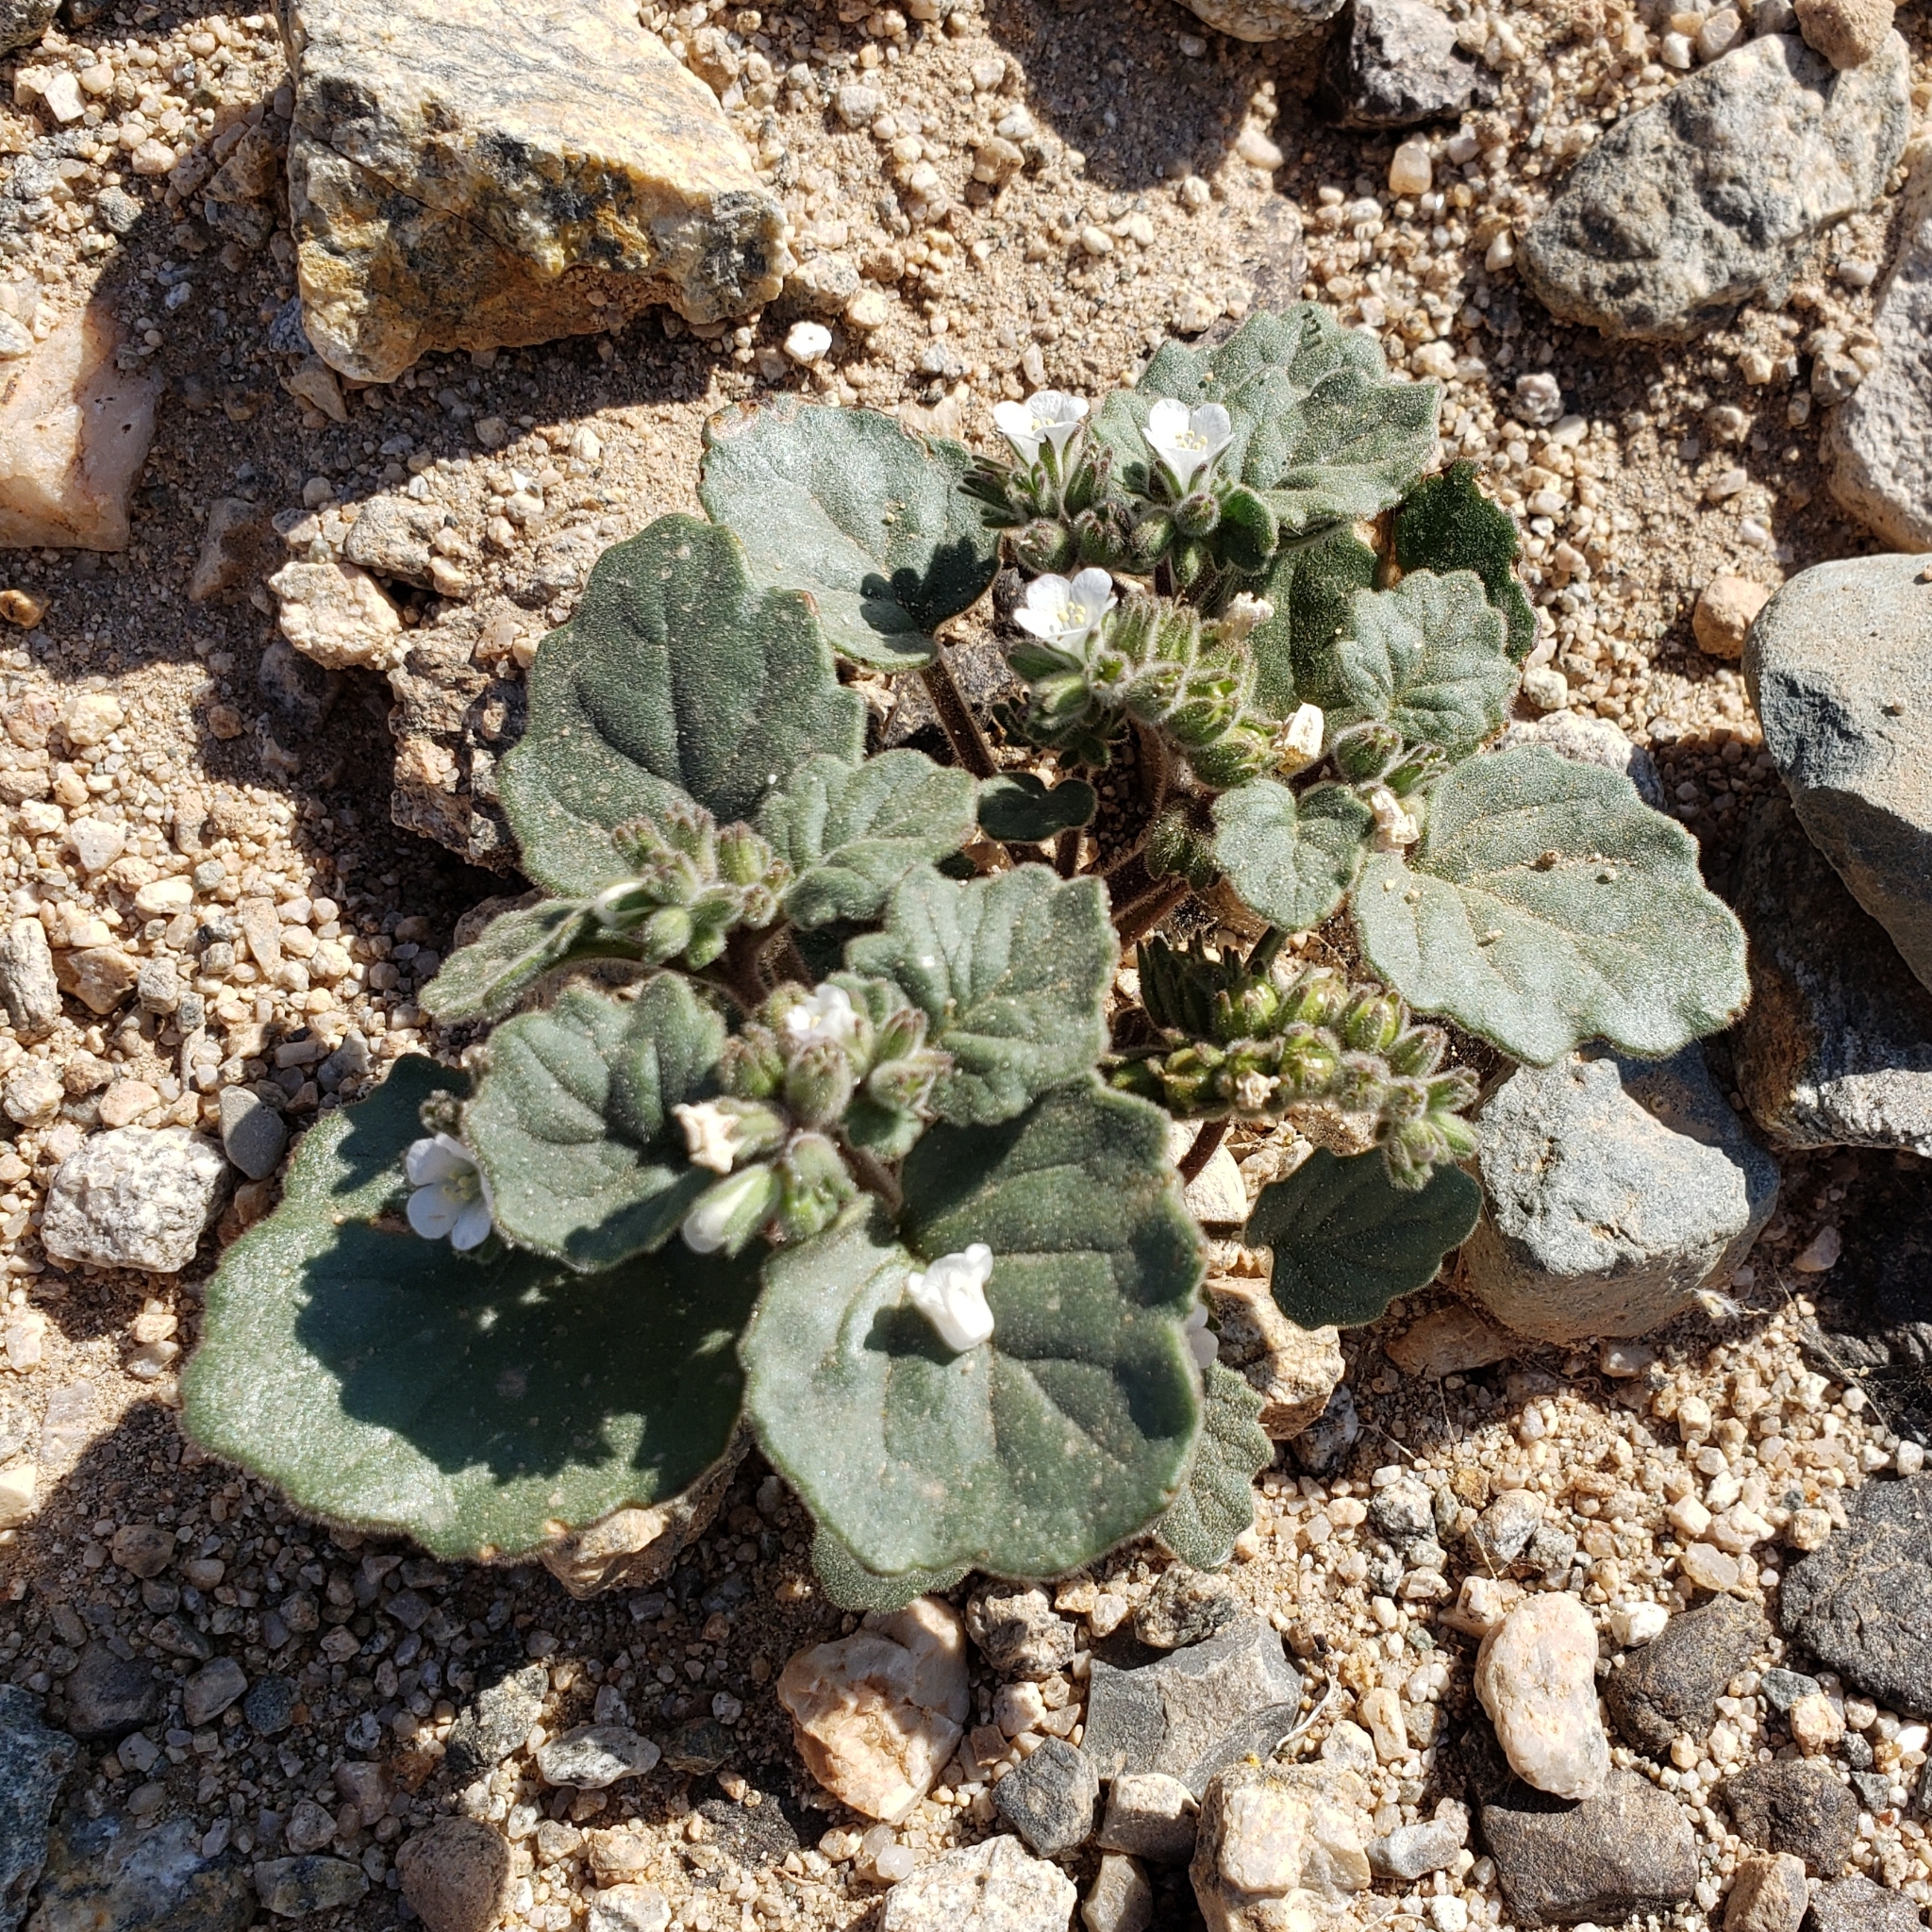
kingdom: Plantae
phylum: Tracheophyta
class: Magnoliopsida
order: Boraginales
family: Hydrophyllaceae
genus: Phacelia
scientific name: Phacelia neglecta
